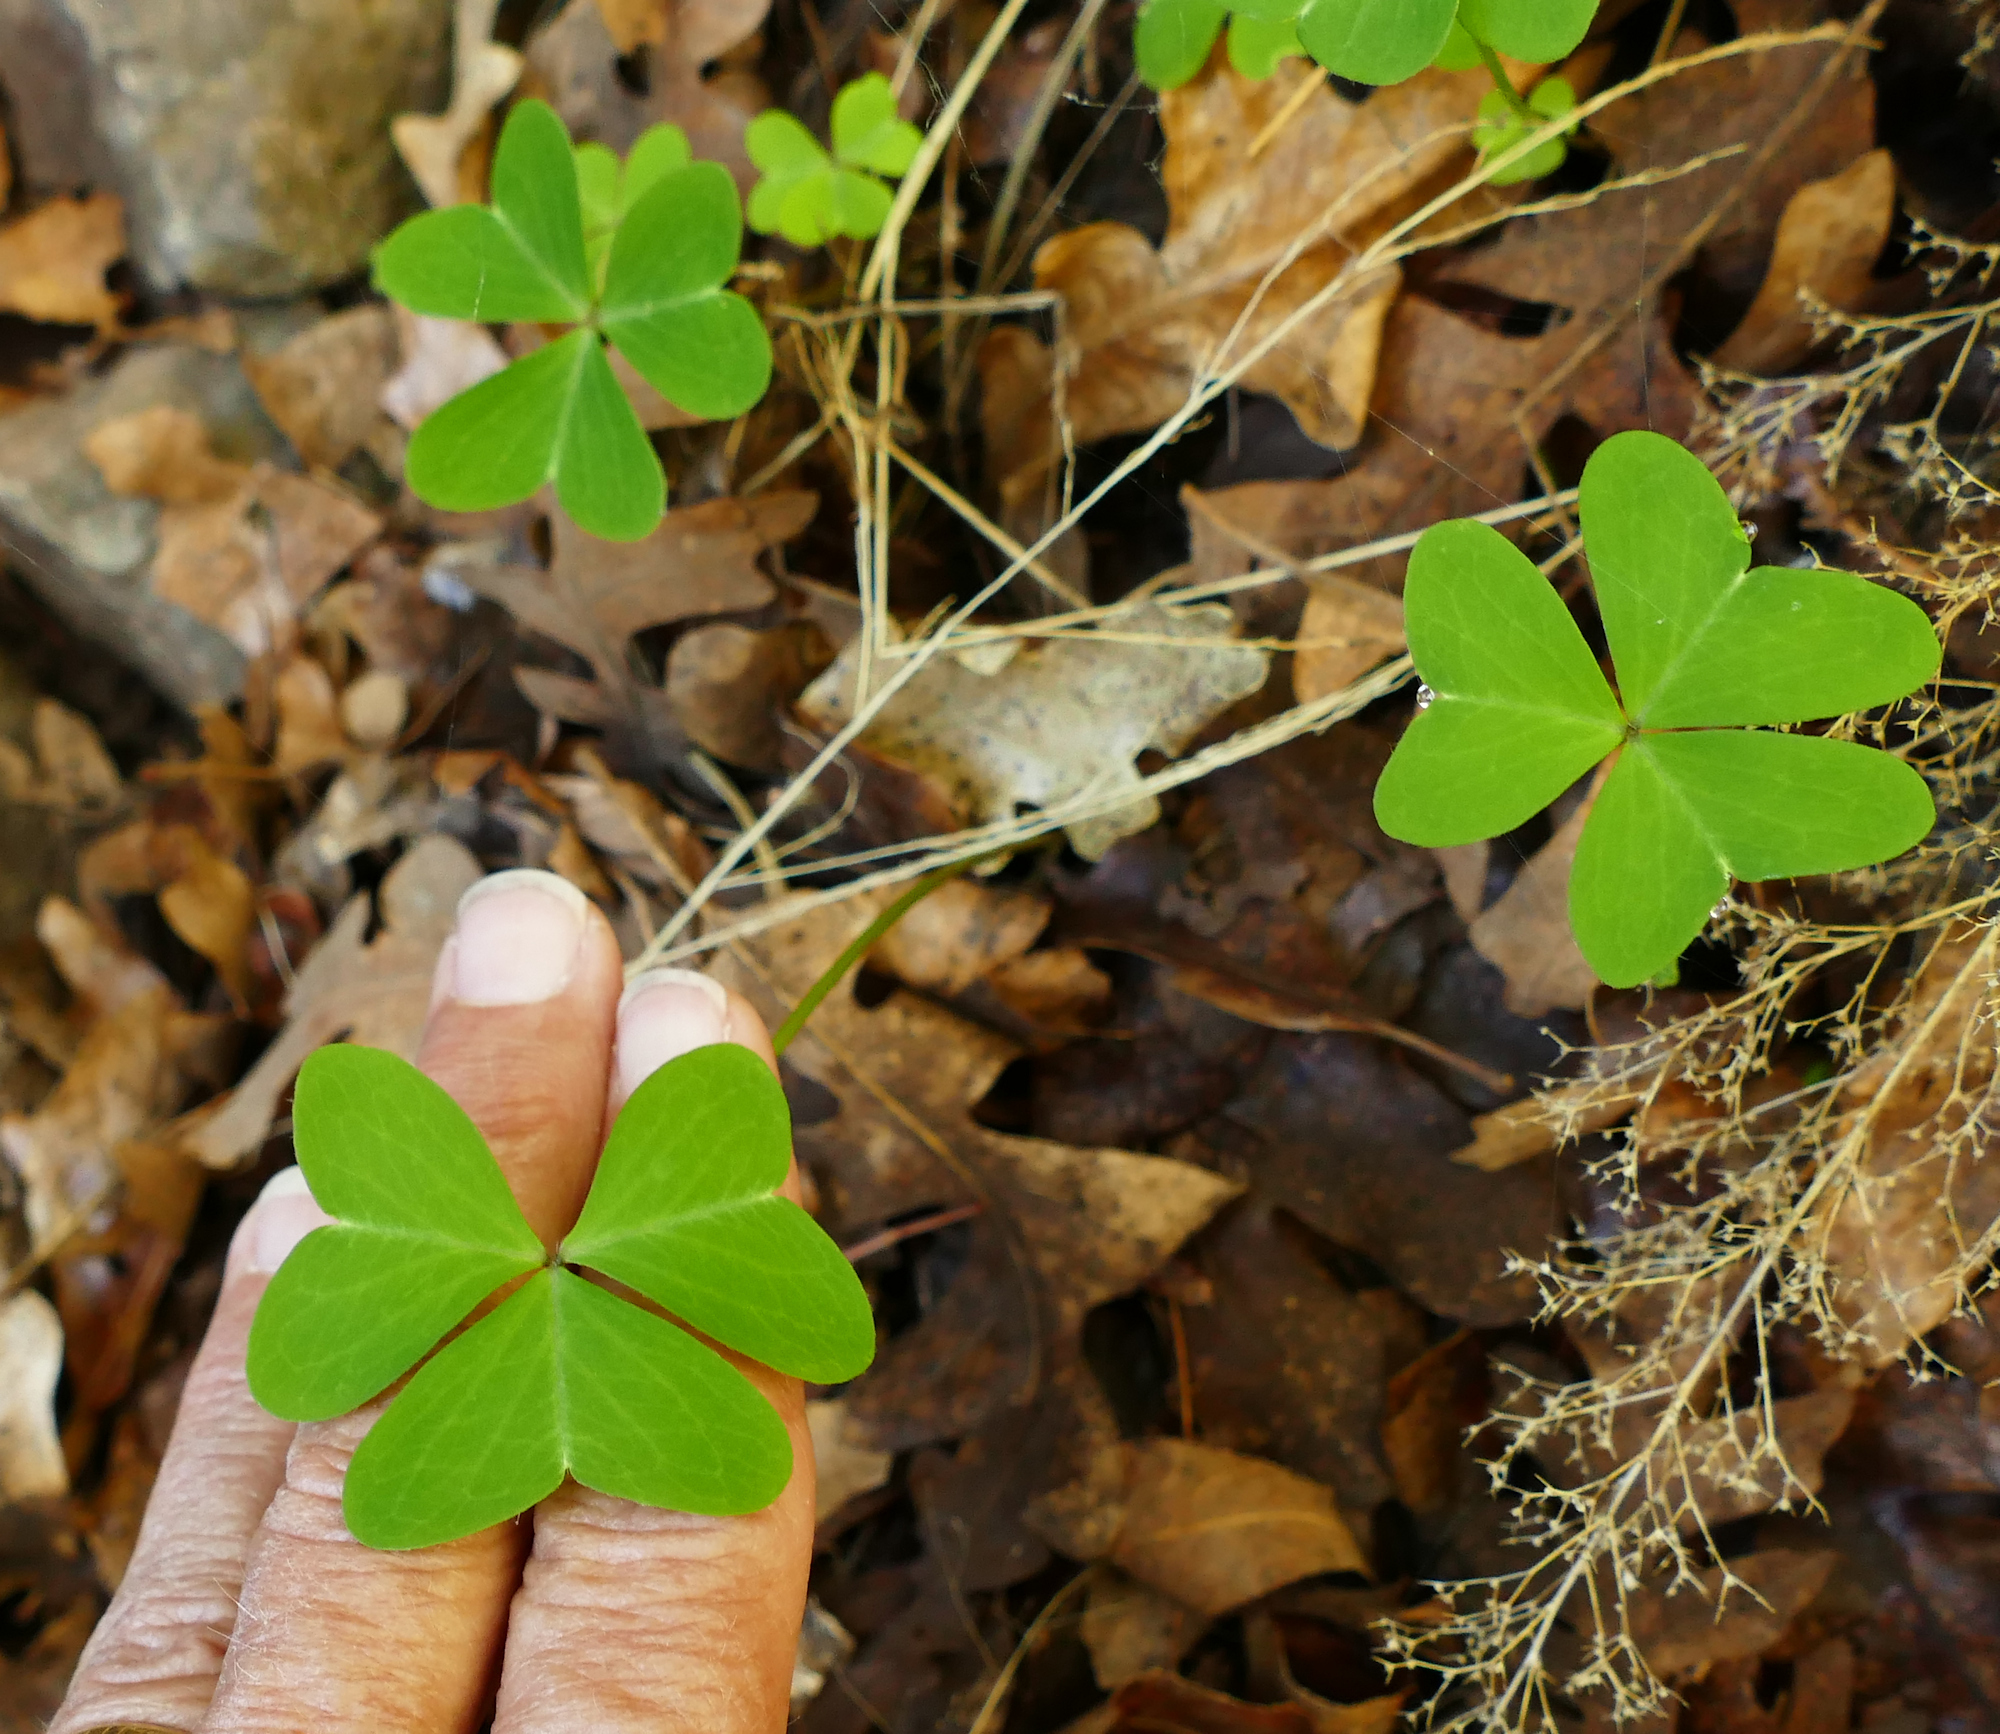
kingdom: Plantae
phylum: Tracheophyta
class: Magnoliopsida
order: Oxalidales
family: Oxalidaceae
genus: Oxalis
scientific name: Oxalis metcalfei
